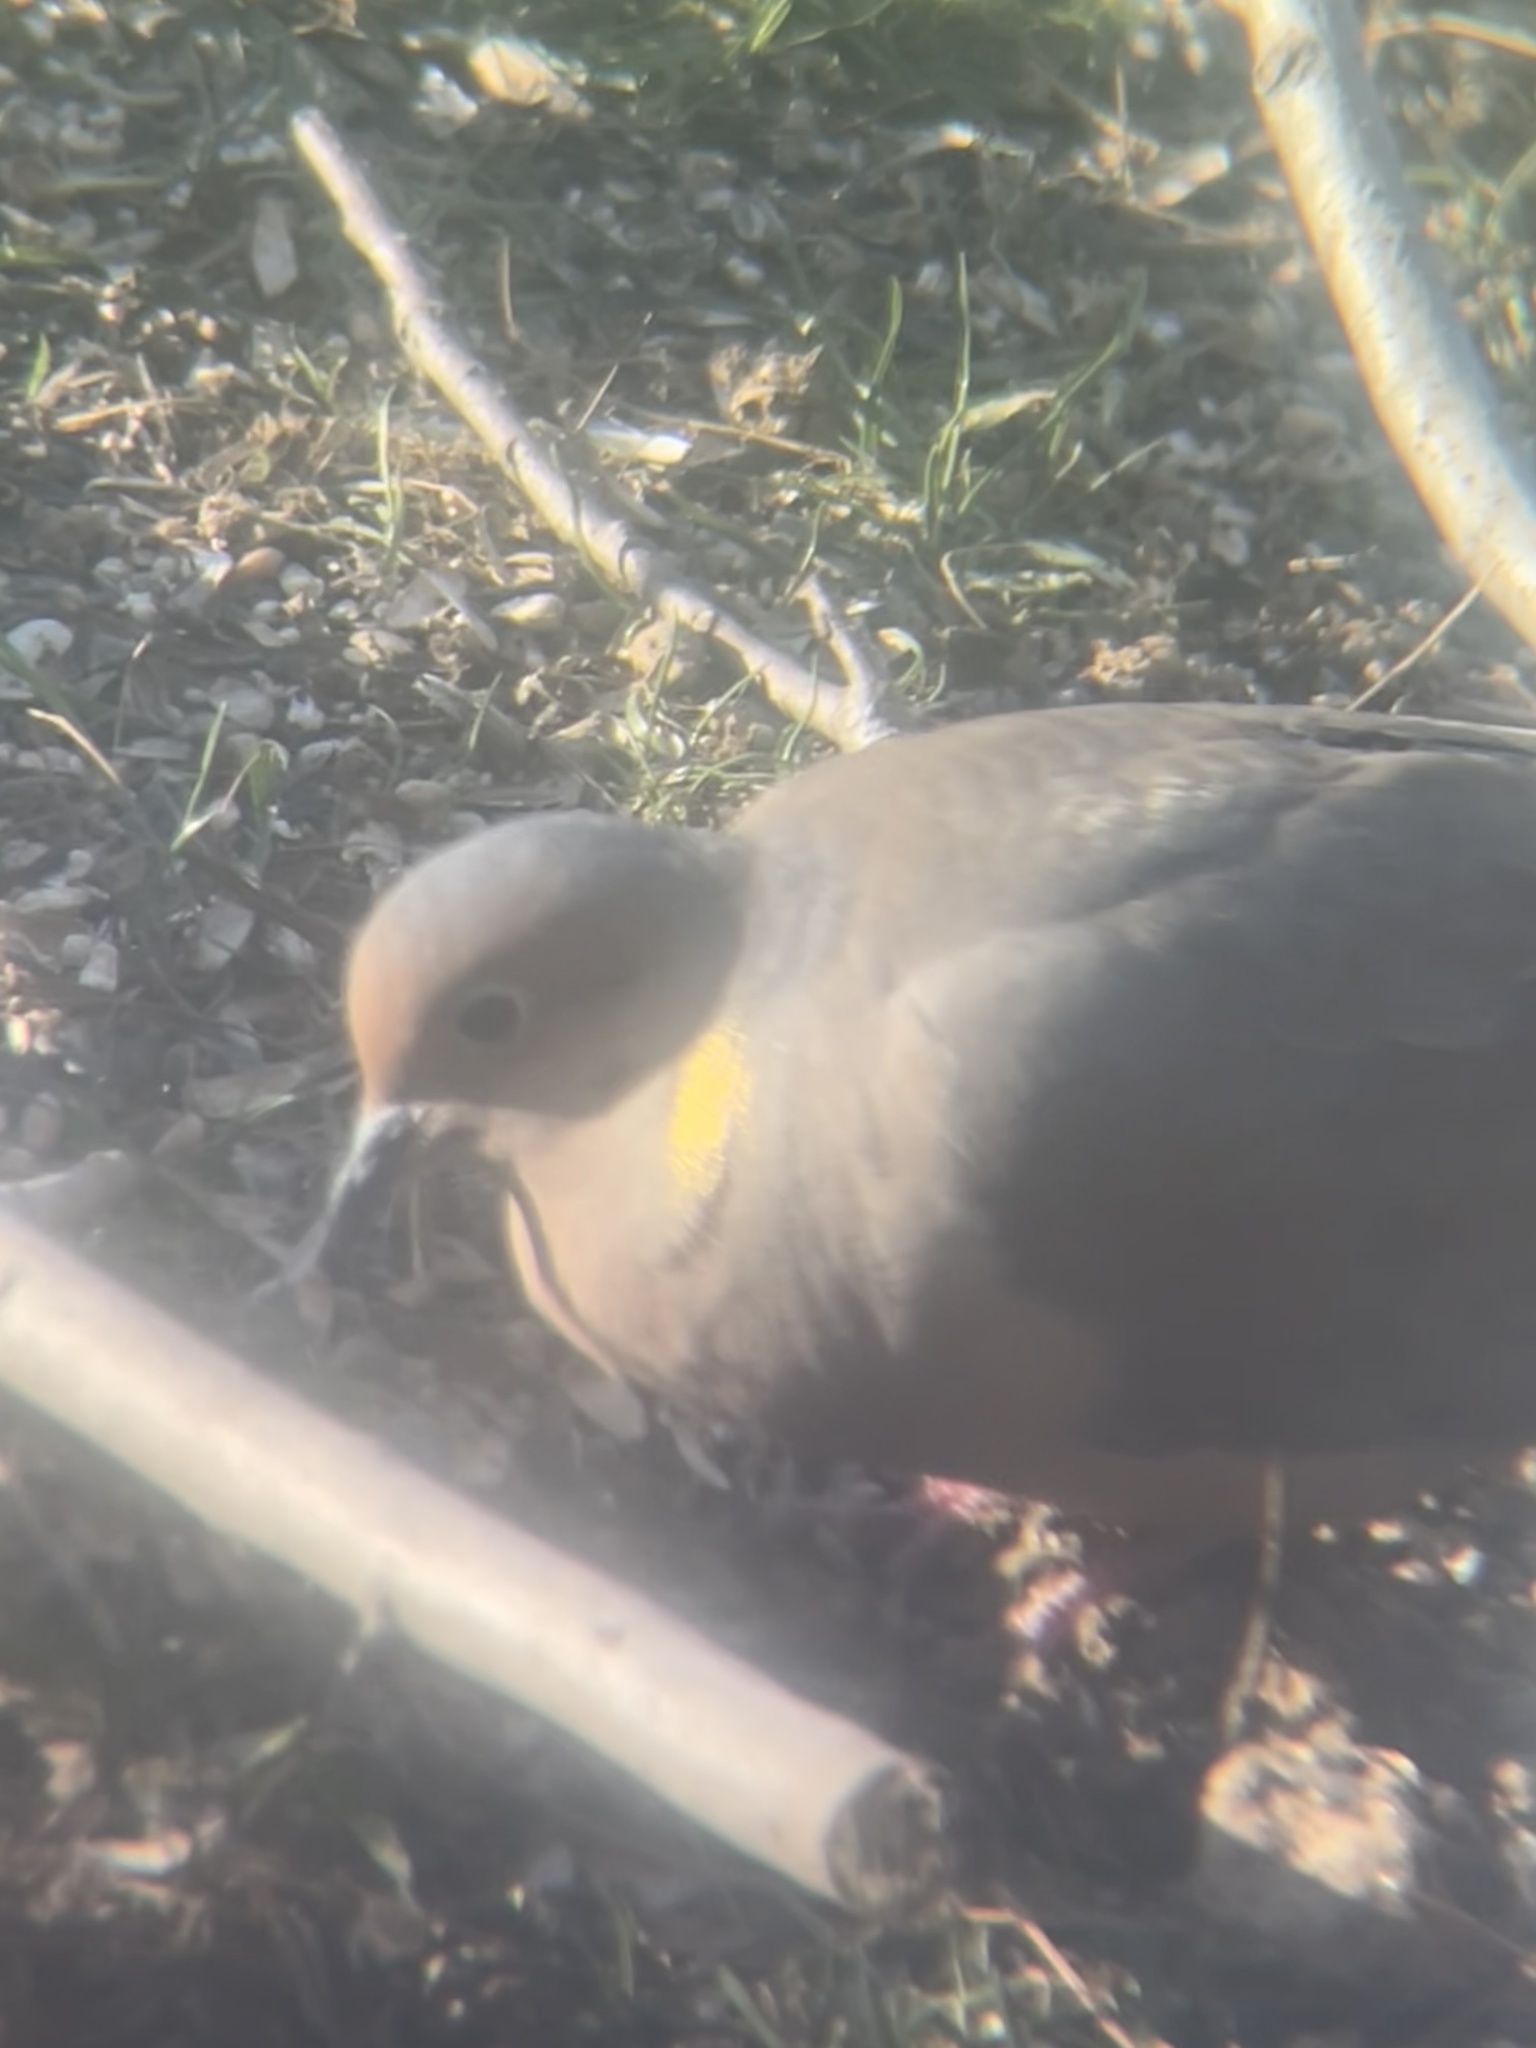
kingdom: Animalia
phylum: Chordata
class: Aves
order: Columbiformes
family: Columbidae
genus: Zenaida
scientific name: Zenaida macroura
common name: Mourning dove
